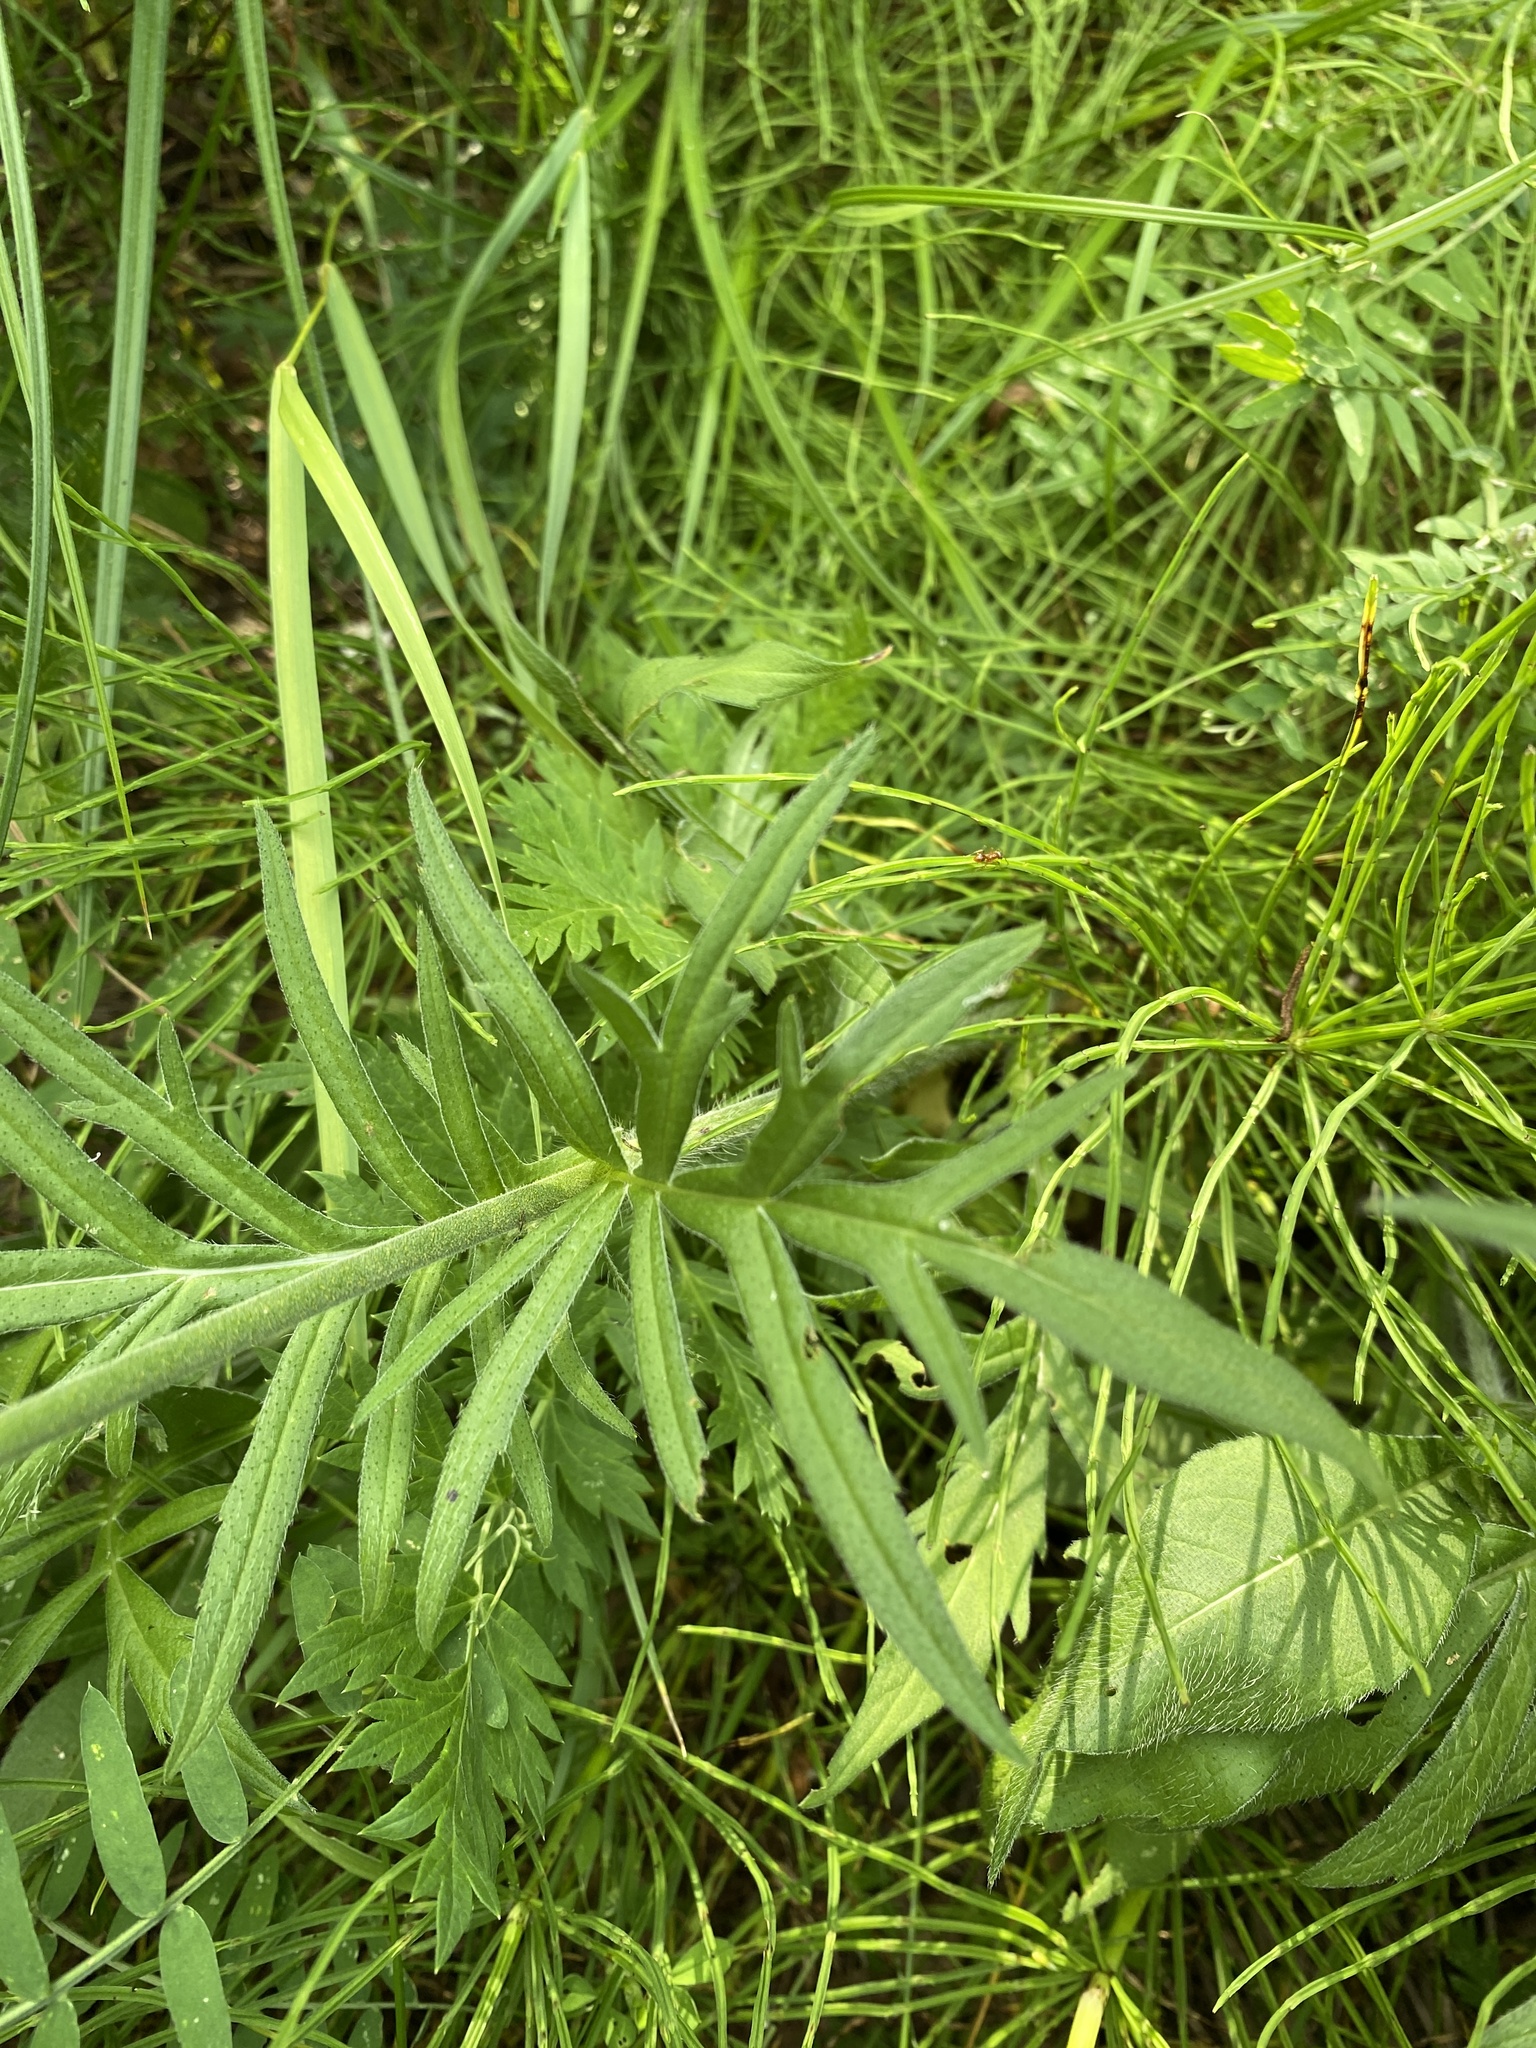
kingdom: Plantae
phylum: Tracheophyta
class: Magnoliopsida
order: Dipsacales
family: Caprifoliaceae
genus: Knautia
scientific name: Knautia arvensis
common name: Field scabiosa
